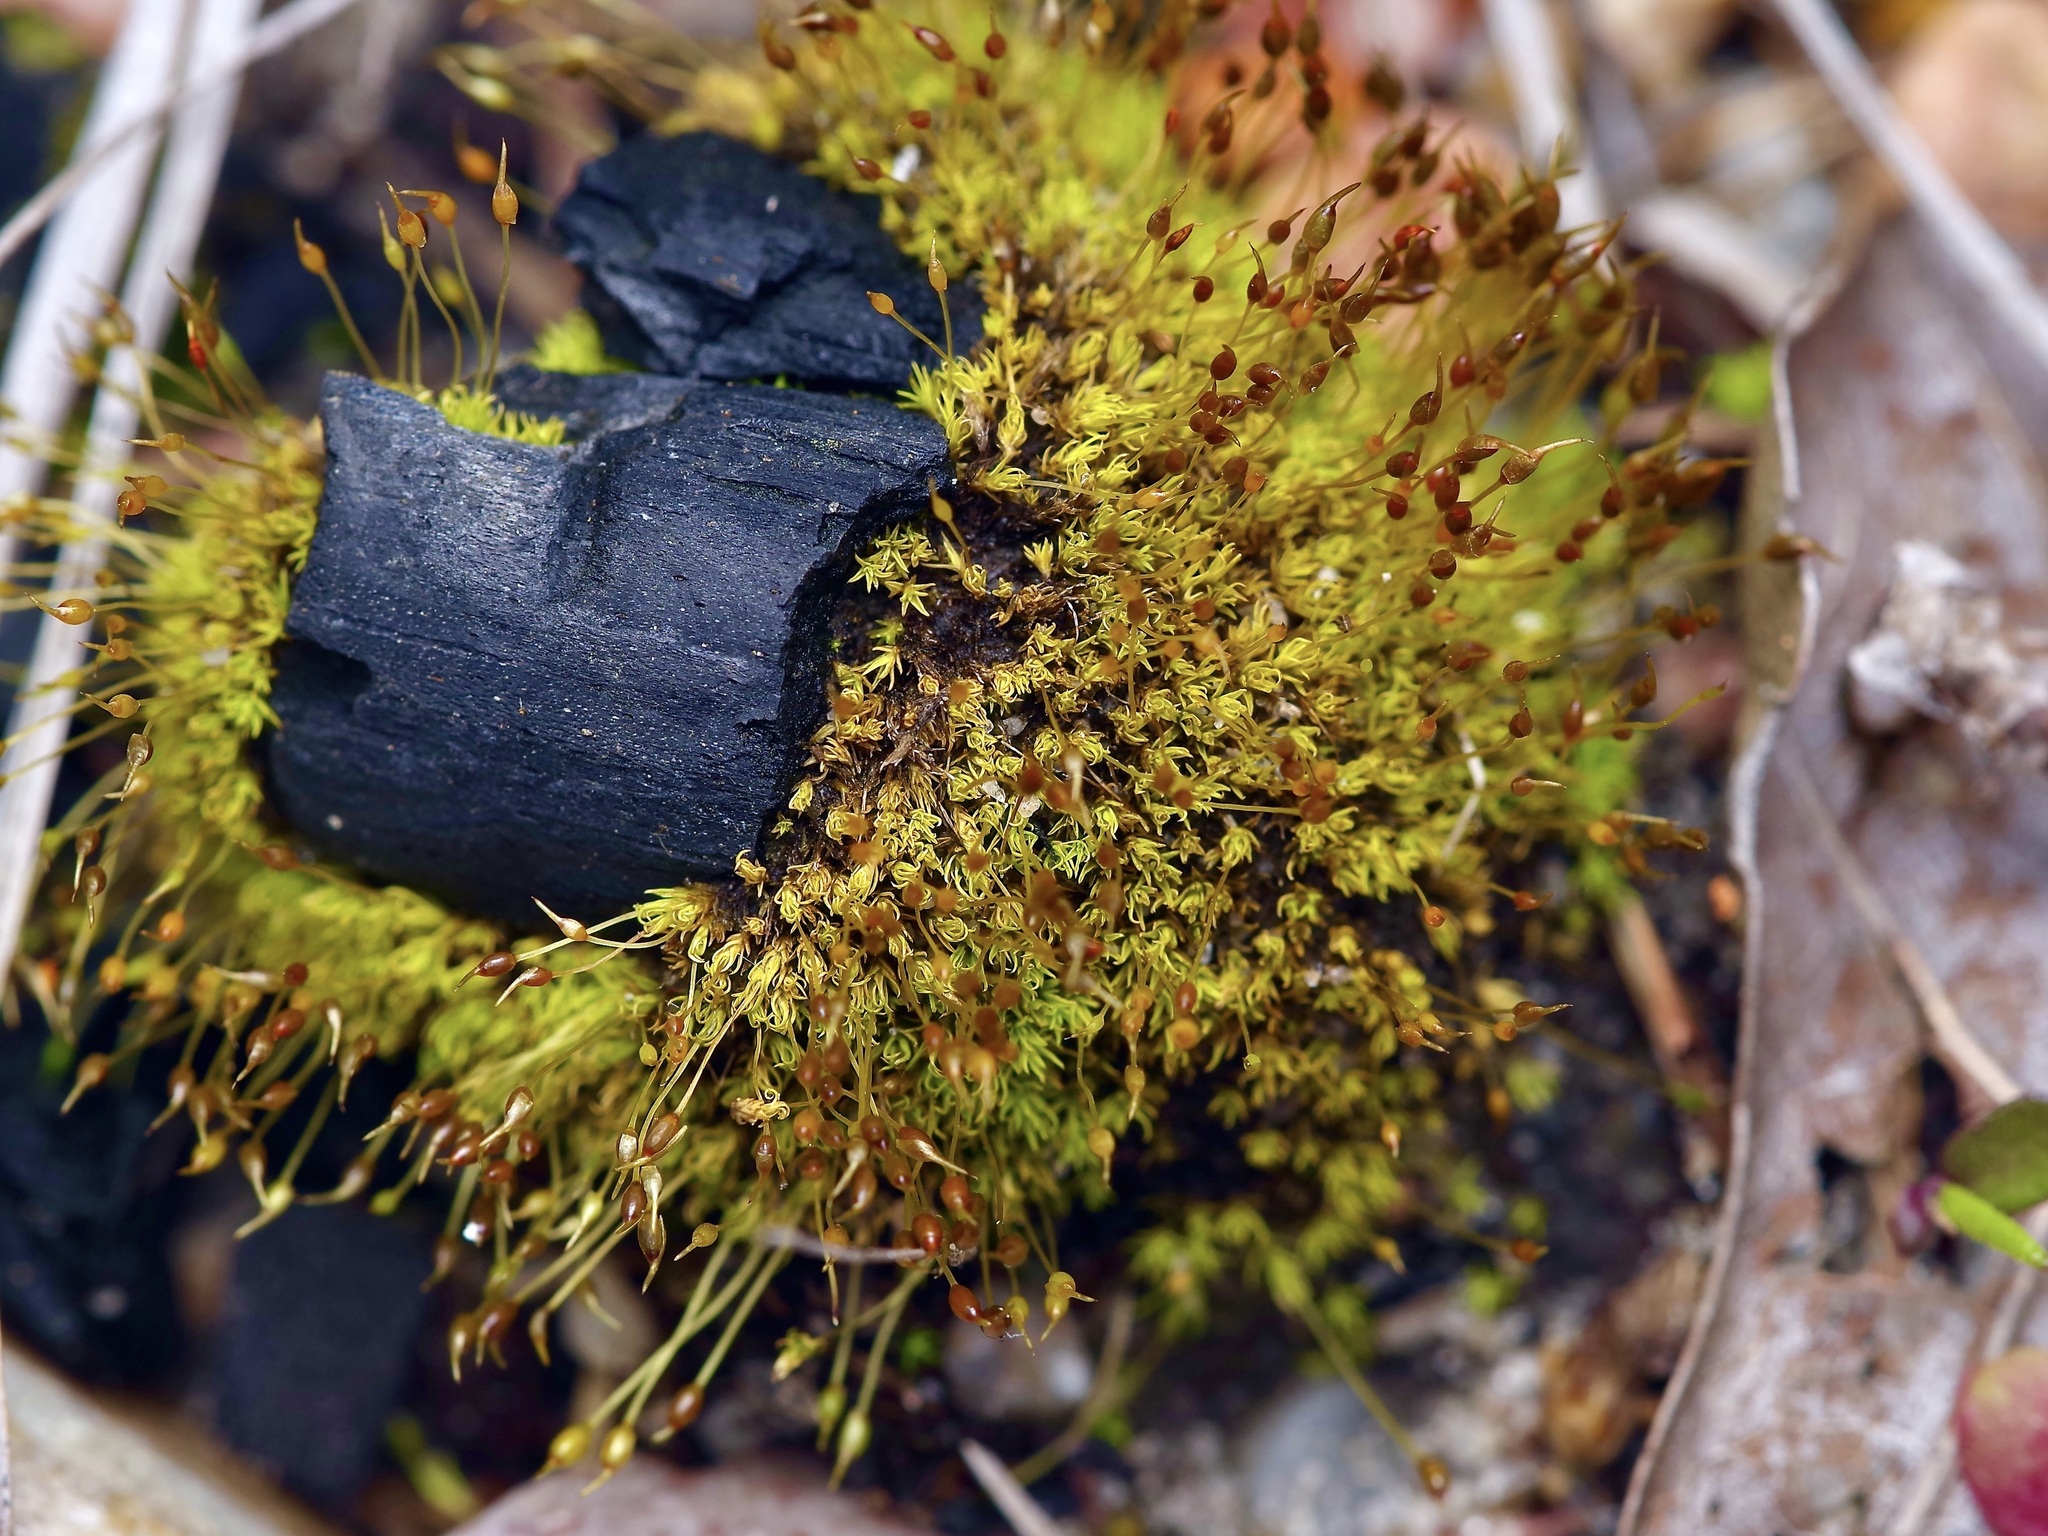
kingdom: Plantae
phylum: Bryophyta
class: Bryopsida
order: Pottiales
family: Pottiaceae
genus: Weissia
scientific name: Weissia controversa
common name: Green-tufted stubble moss
